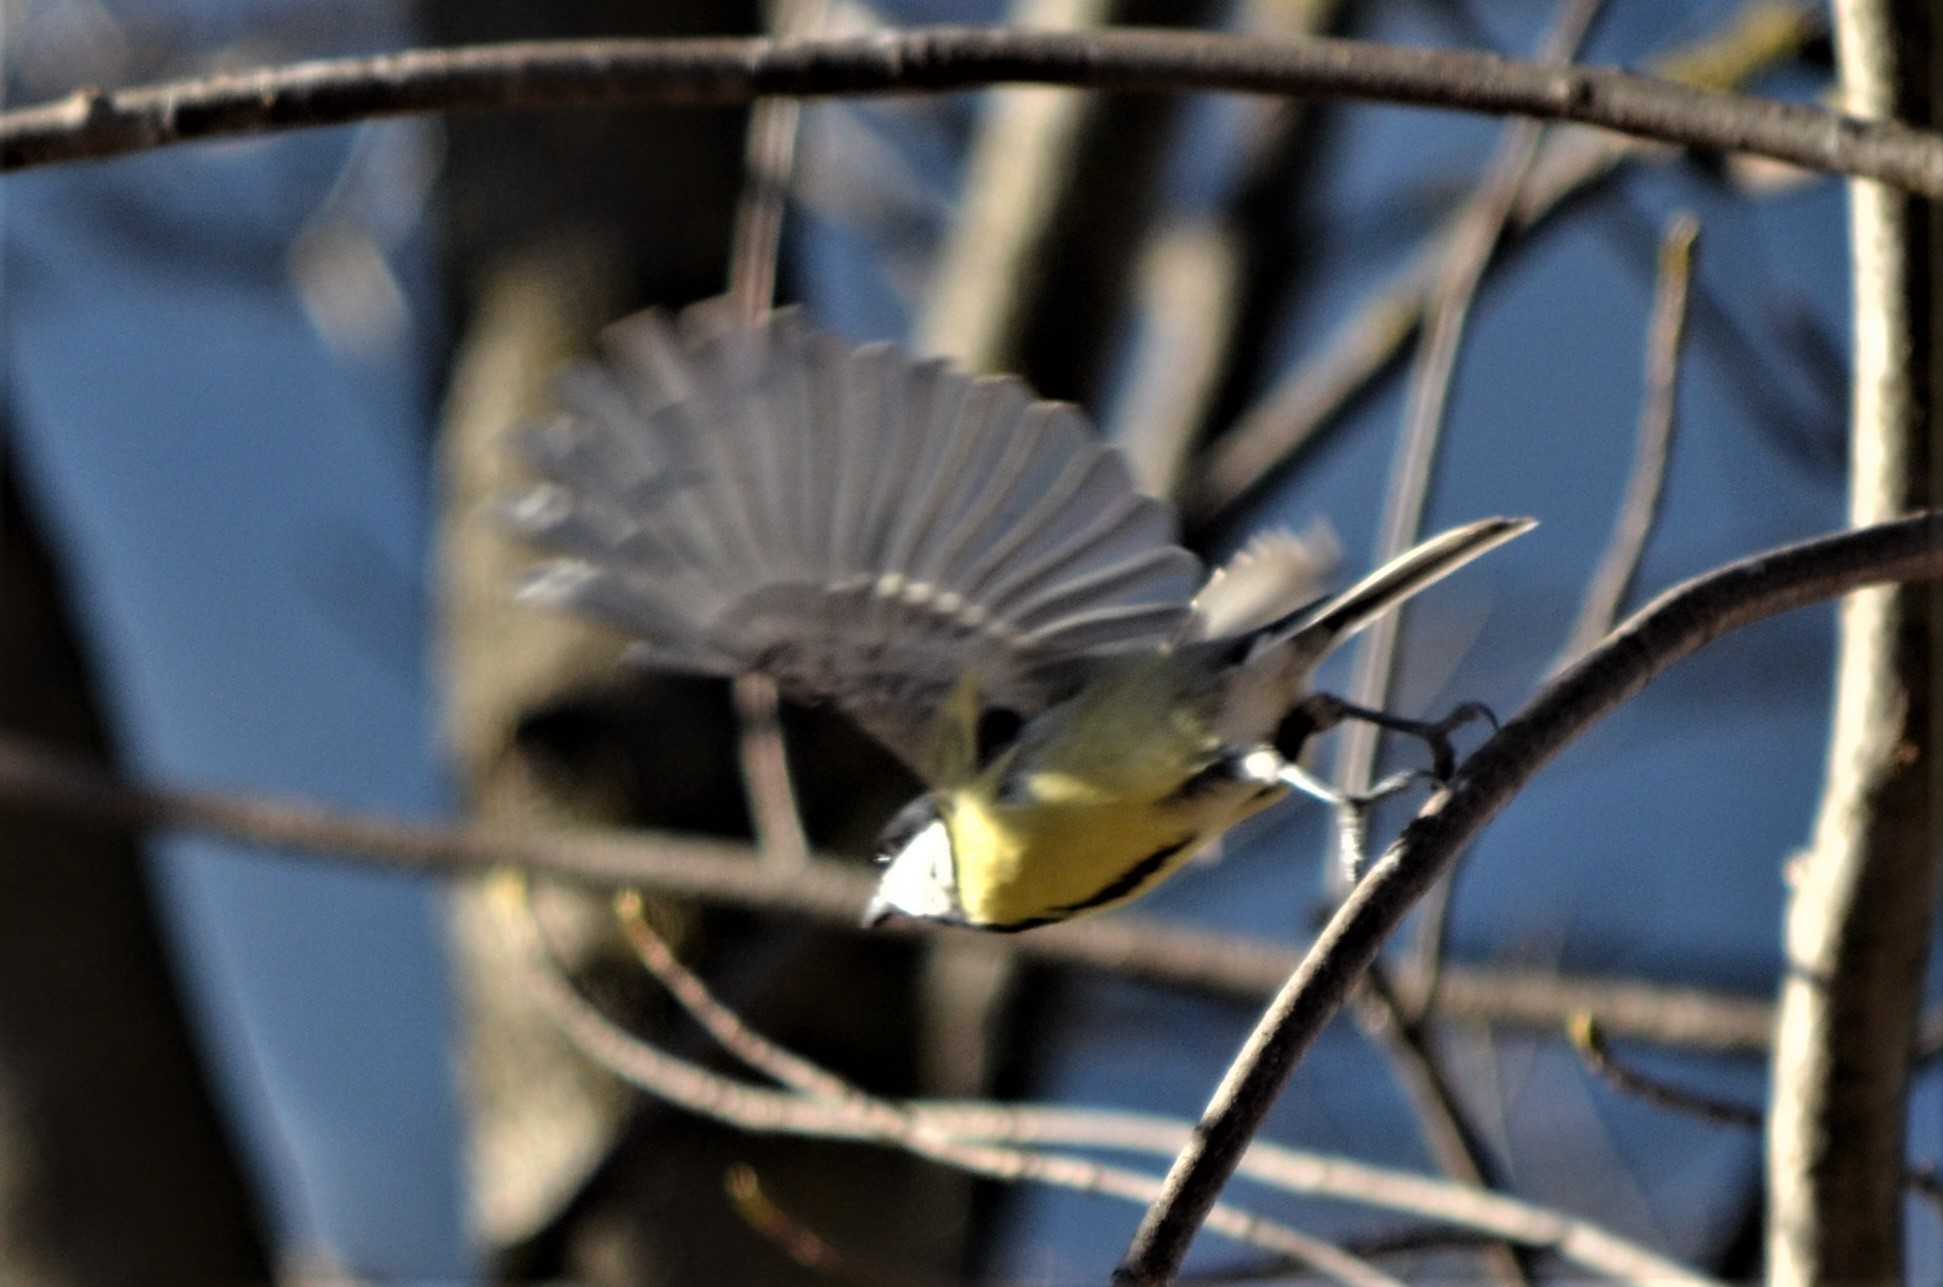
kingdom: Animalia
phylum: Chordata
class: Aves
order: Passeriformes
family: Paridae
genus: Parus
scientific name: Parus major
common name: Great tit
